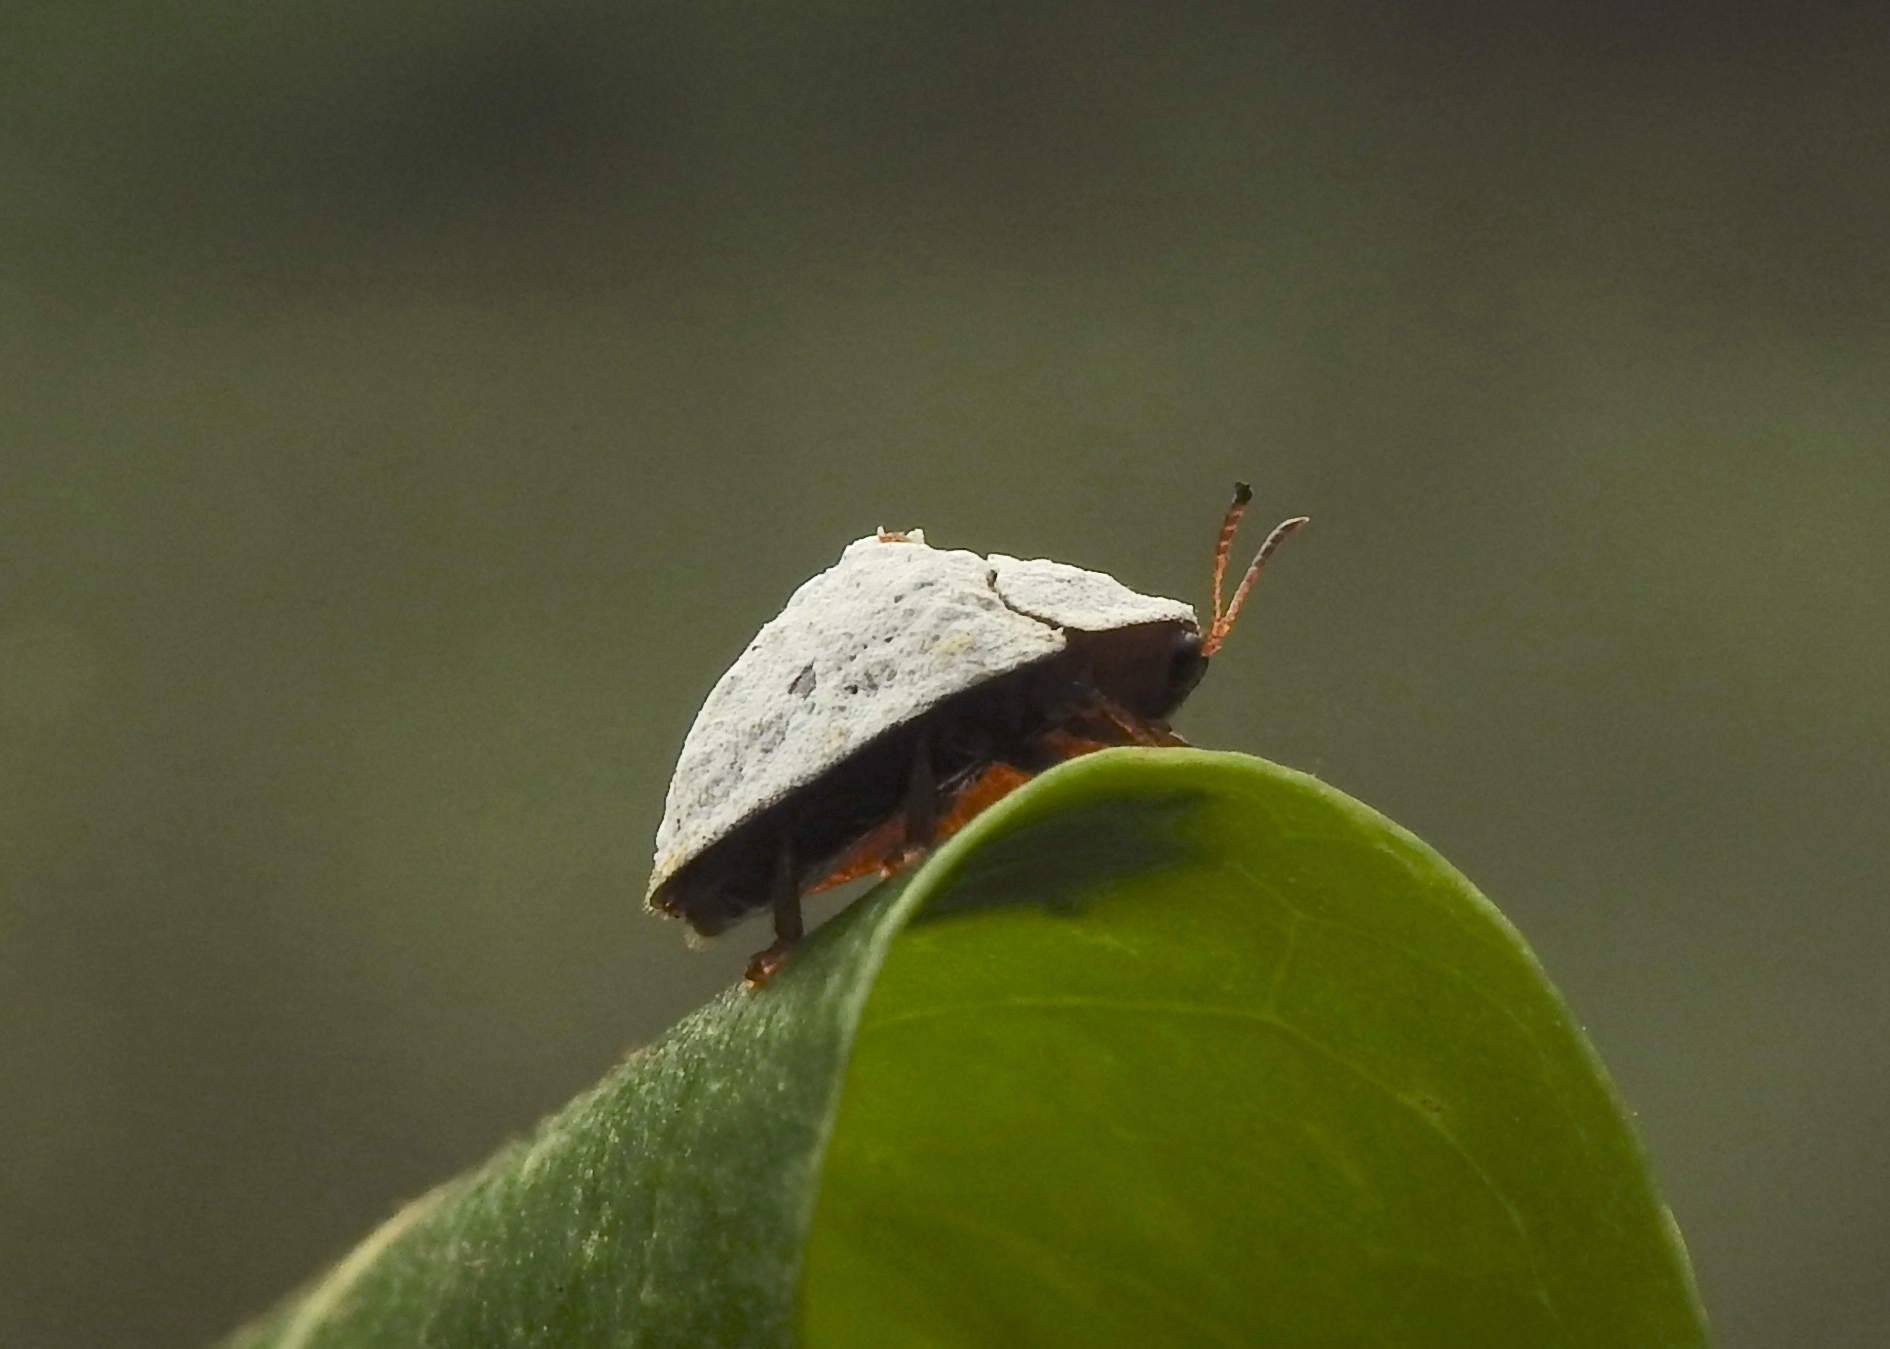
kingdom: Animalia
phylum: Arthropoda
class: Insecta
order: Coleoptera
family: Chrysomelidae
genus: Silana
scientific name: Silana farinosa
